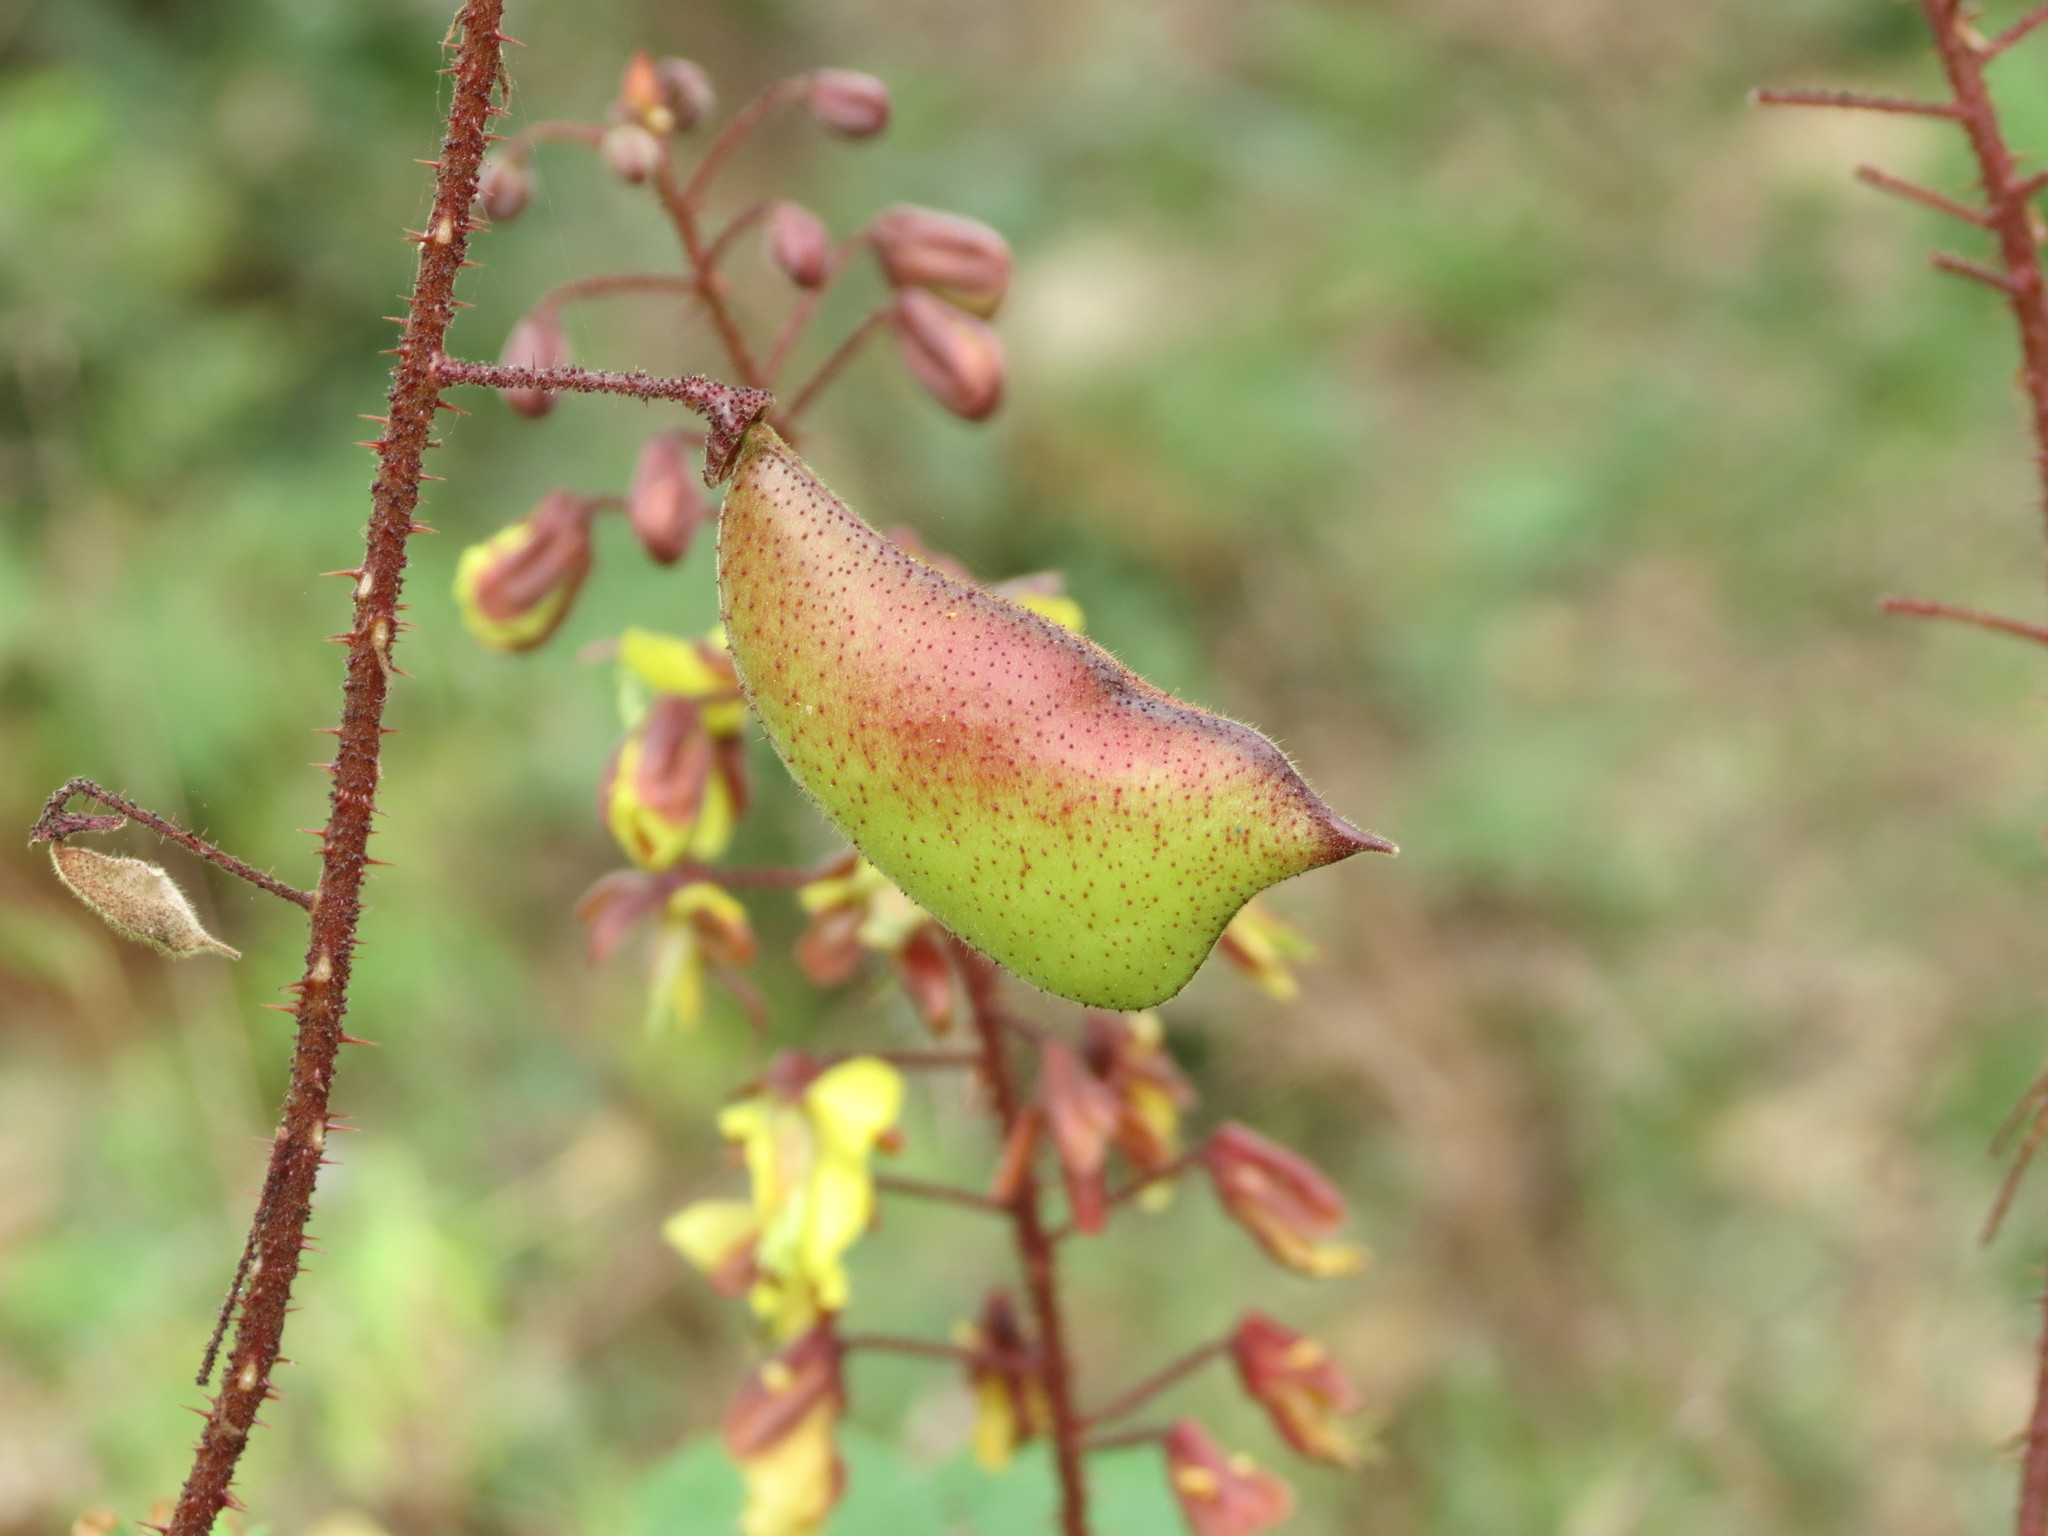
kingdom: Plantae
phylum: Tracheophyta
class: Magnoliopsida
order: Fabales
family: Fabaceae
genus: Hultholia
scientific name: Hultholia mimosoides
